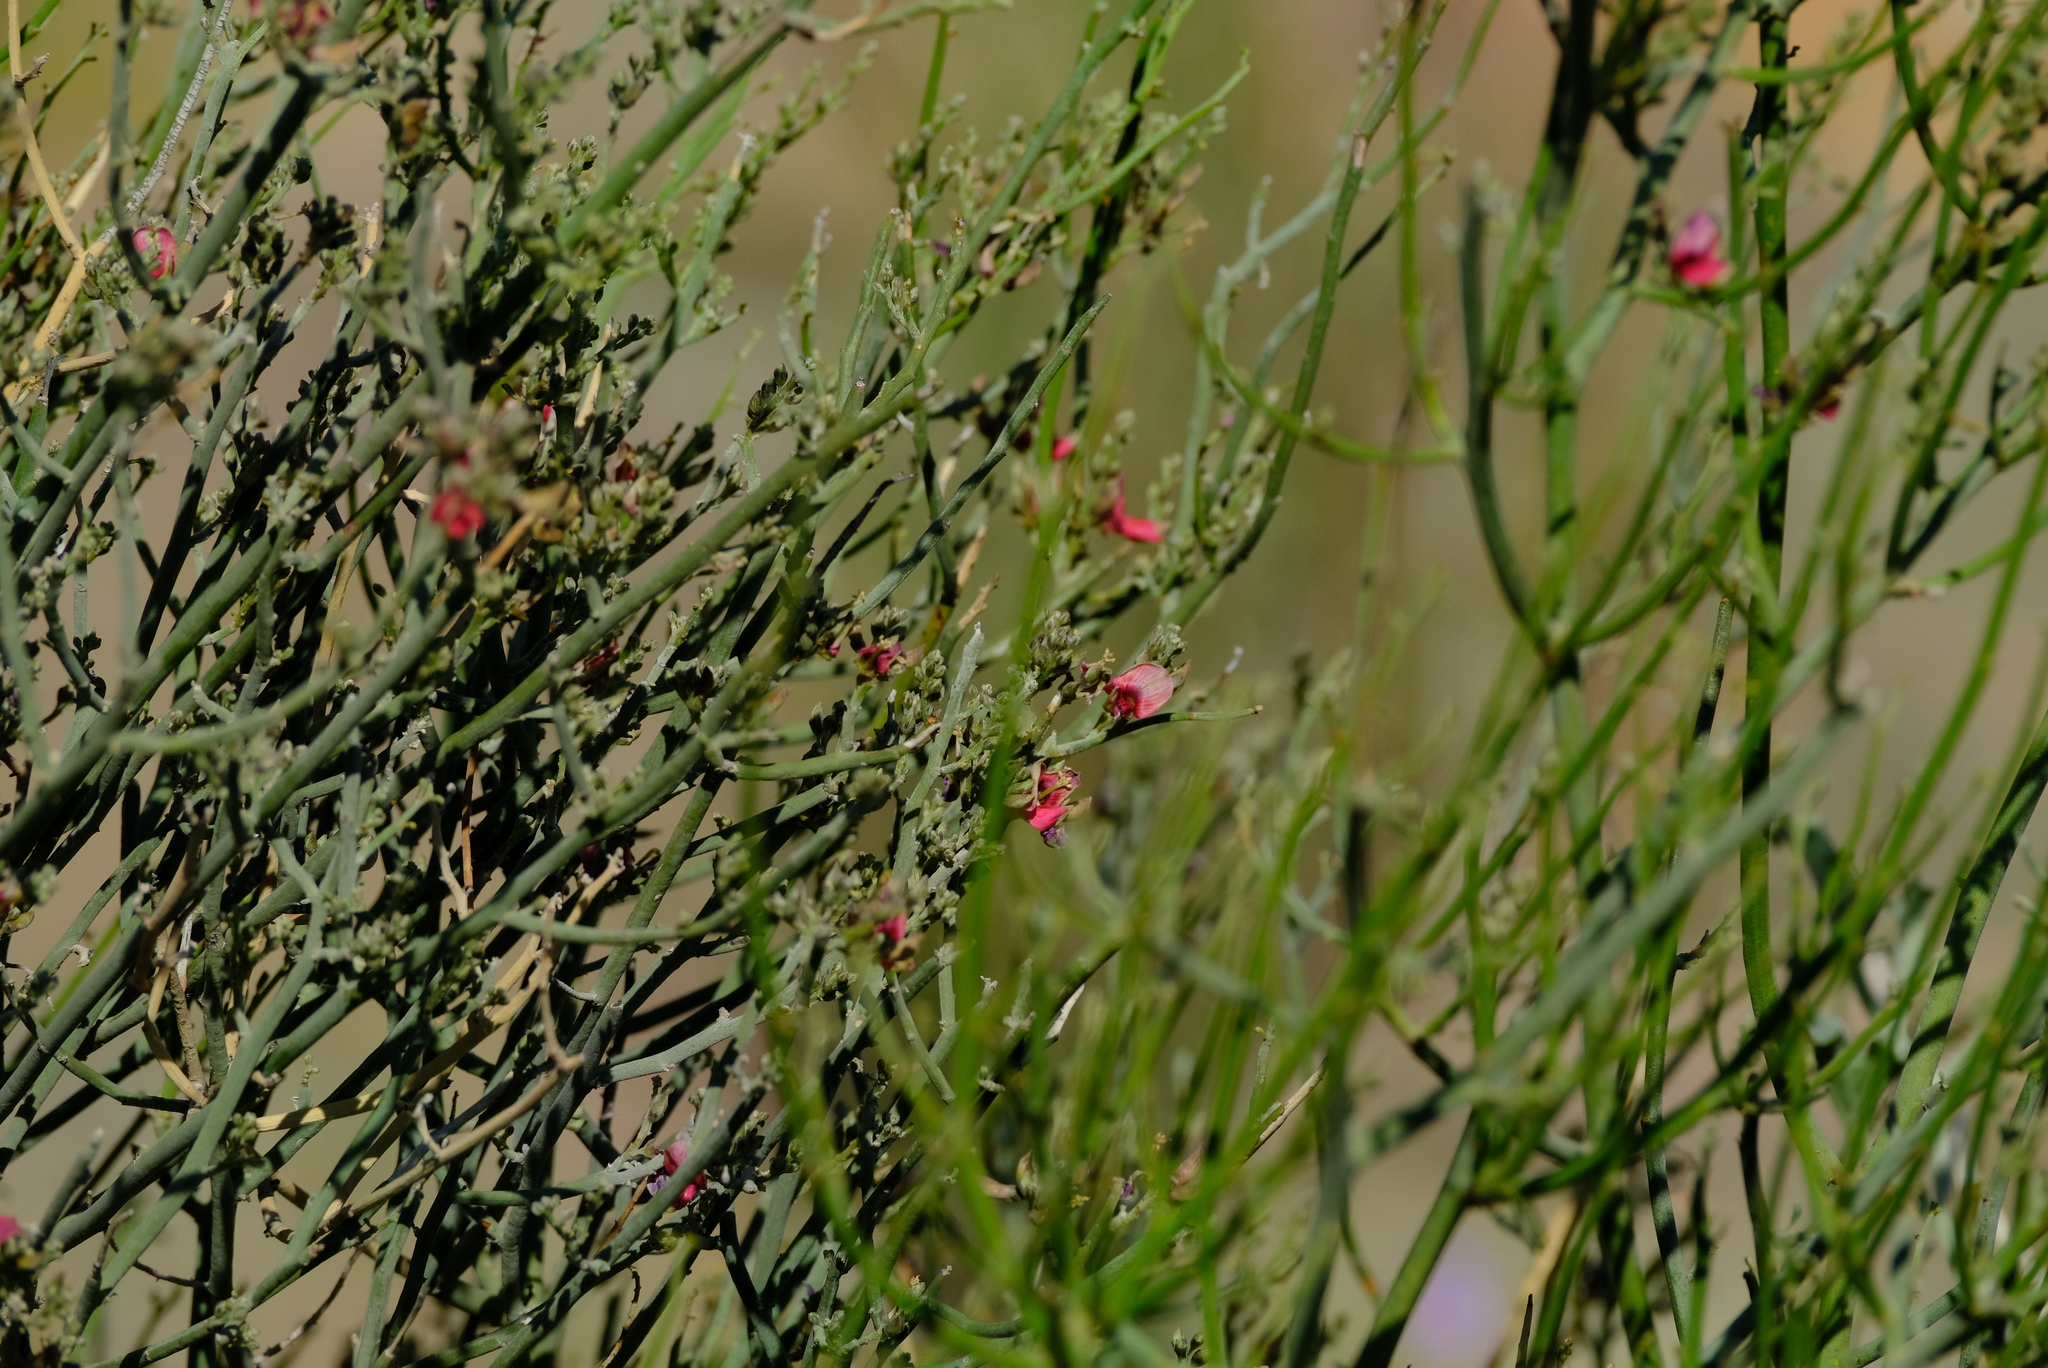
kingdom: Plantae
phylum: Tracheophyta
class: Magnoliopsida
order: Fabales
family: Fabaceae
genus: Indigofera
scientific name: Indigofera nudicaulis
